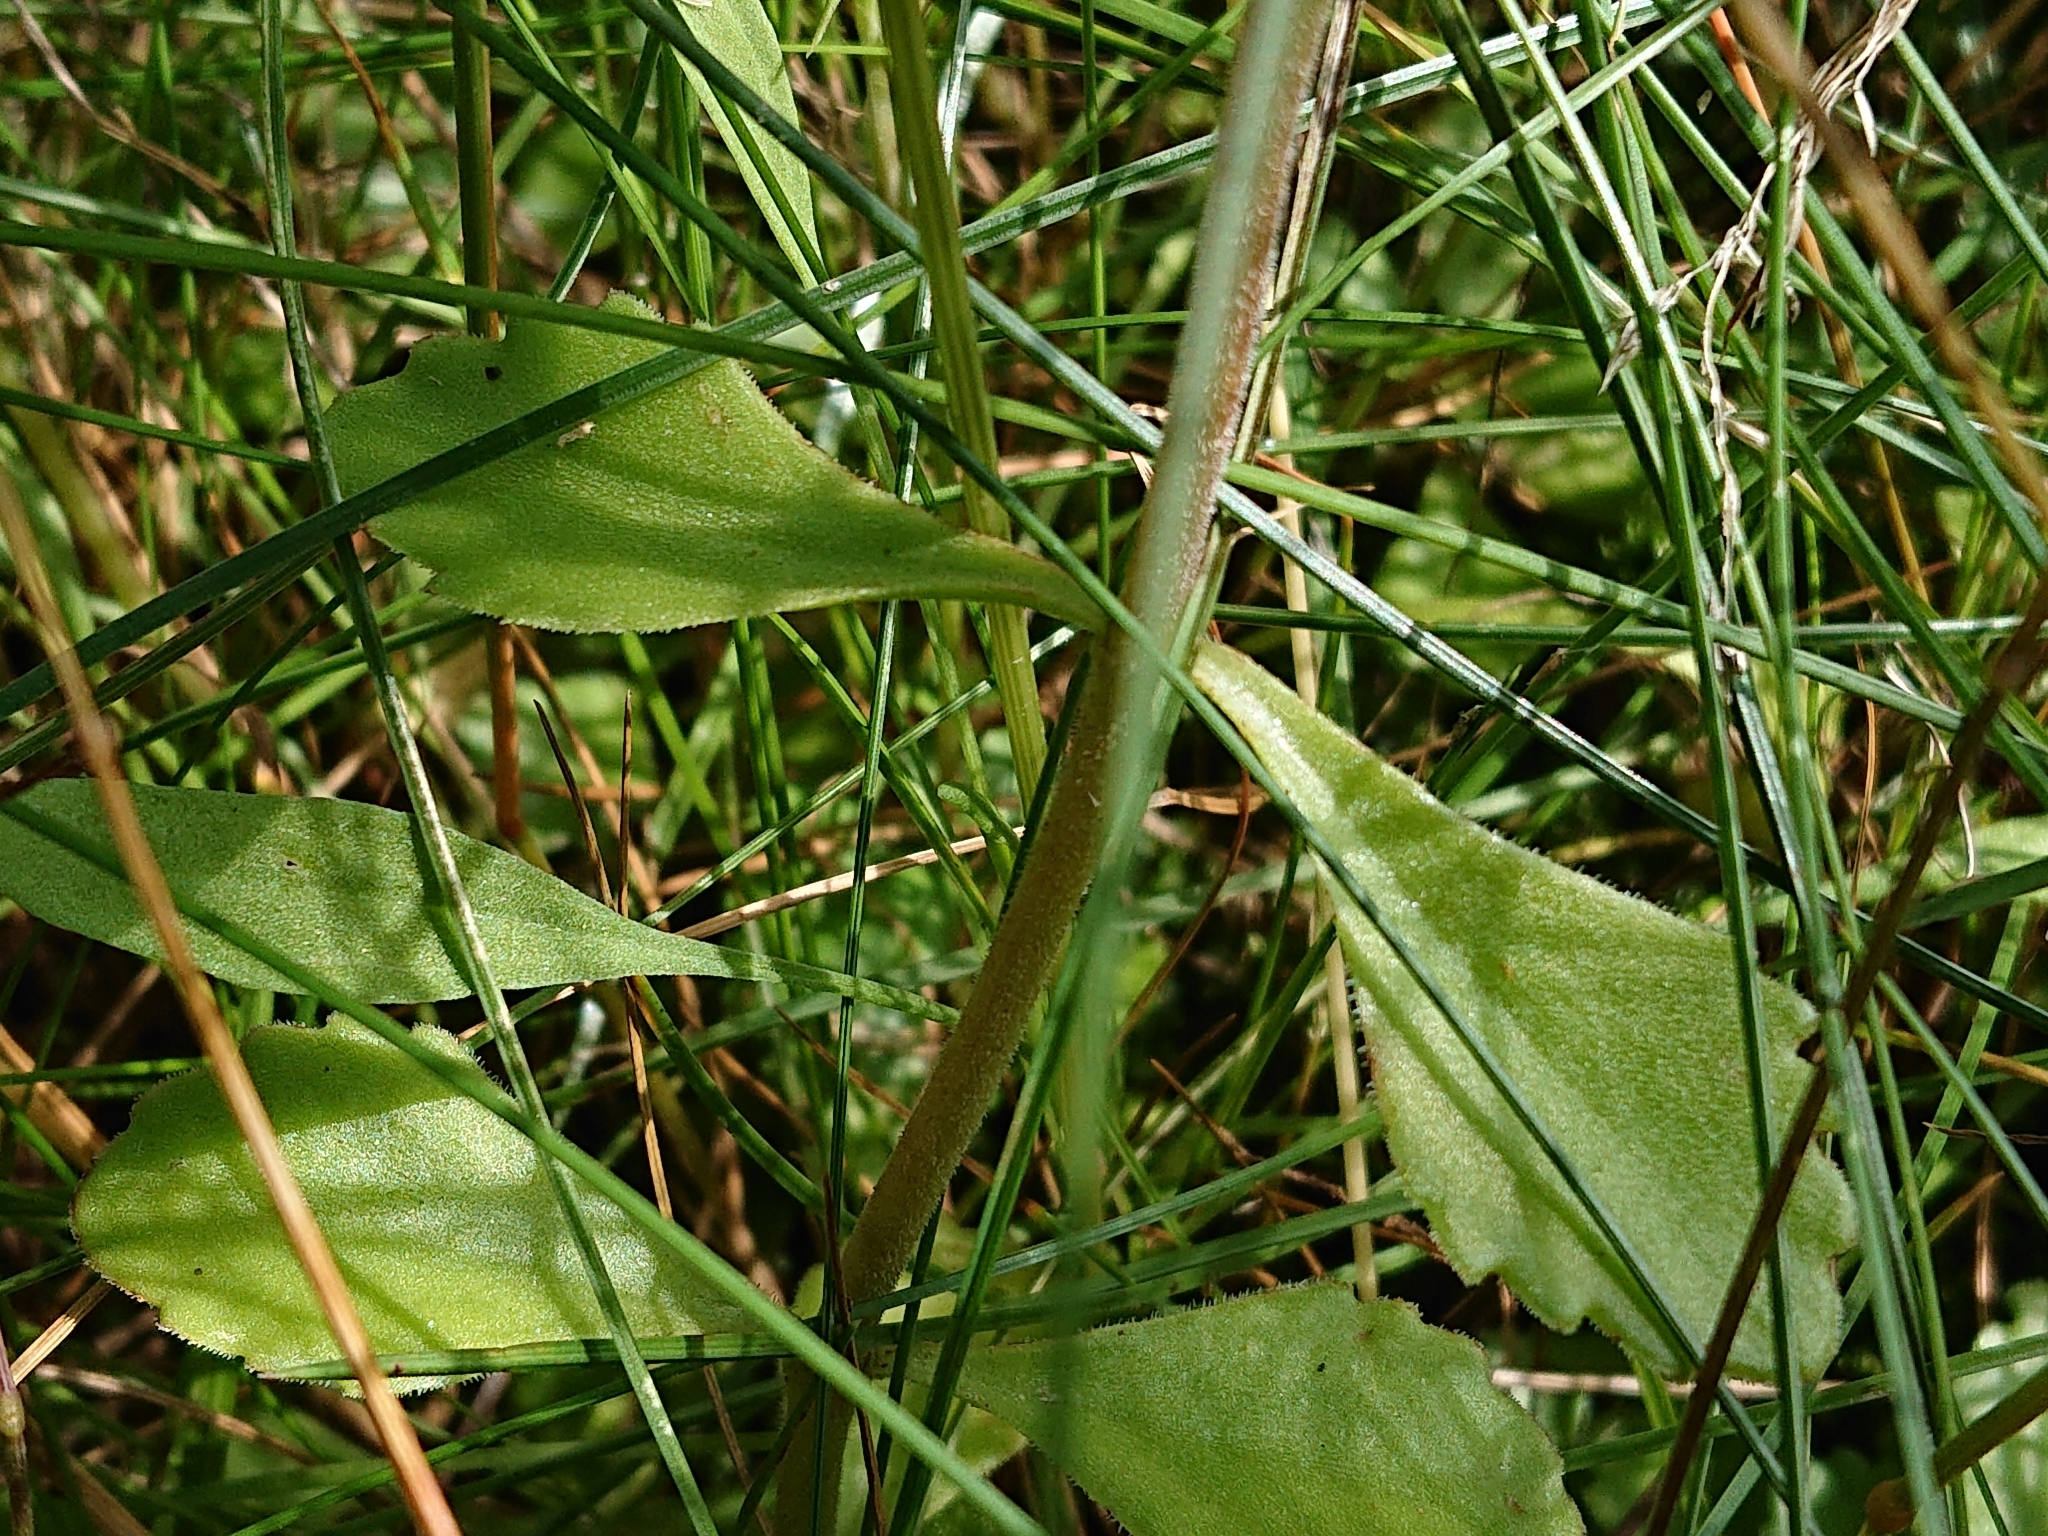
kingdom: Plantae
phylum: Tracheophyta
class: Magnoliopsida
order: Saxifragales
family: Crassulaceae
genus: Phedimus
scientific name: Phedimus spurius
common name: Caucasian stonecrop
